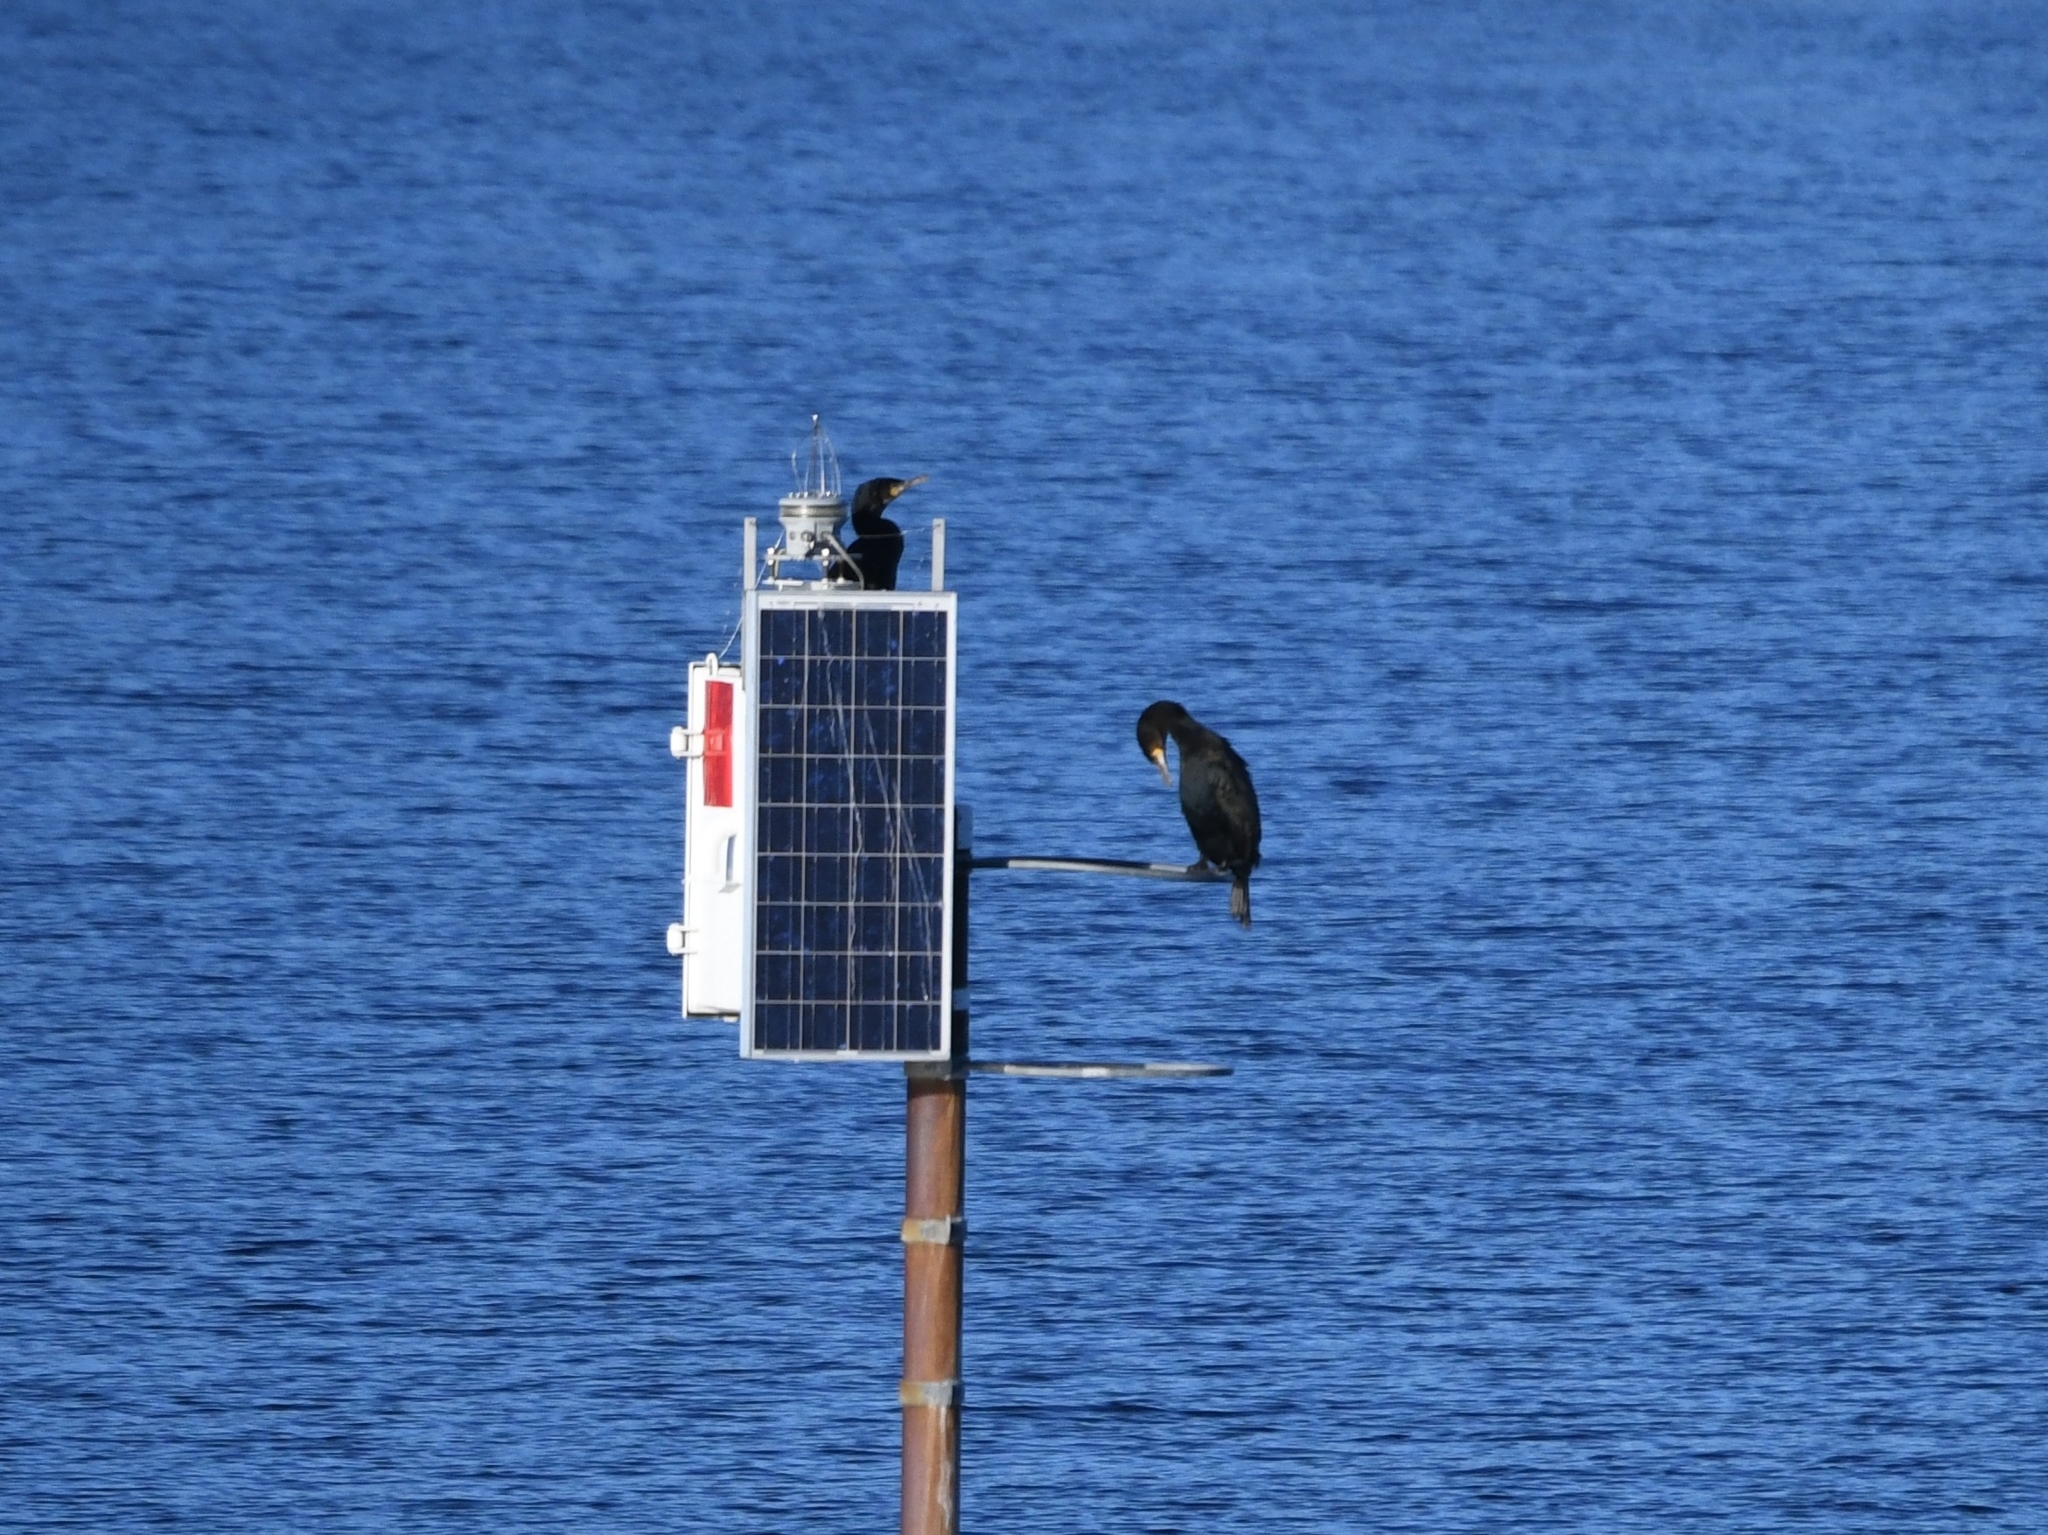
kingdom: Animalia
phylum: Chordata
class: Aves
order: Suliformes
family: Phalacrocoracidae
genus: Phalacrocorax
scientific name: Phalacrocorax carbo
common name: Great cormorant
